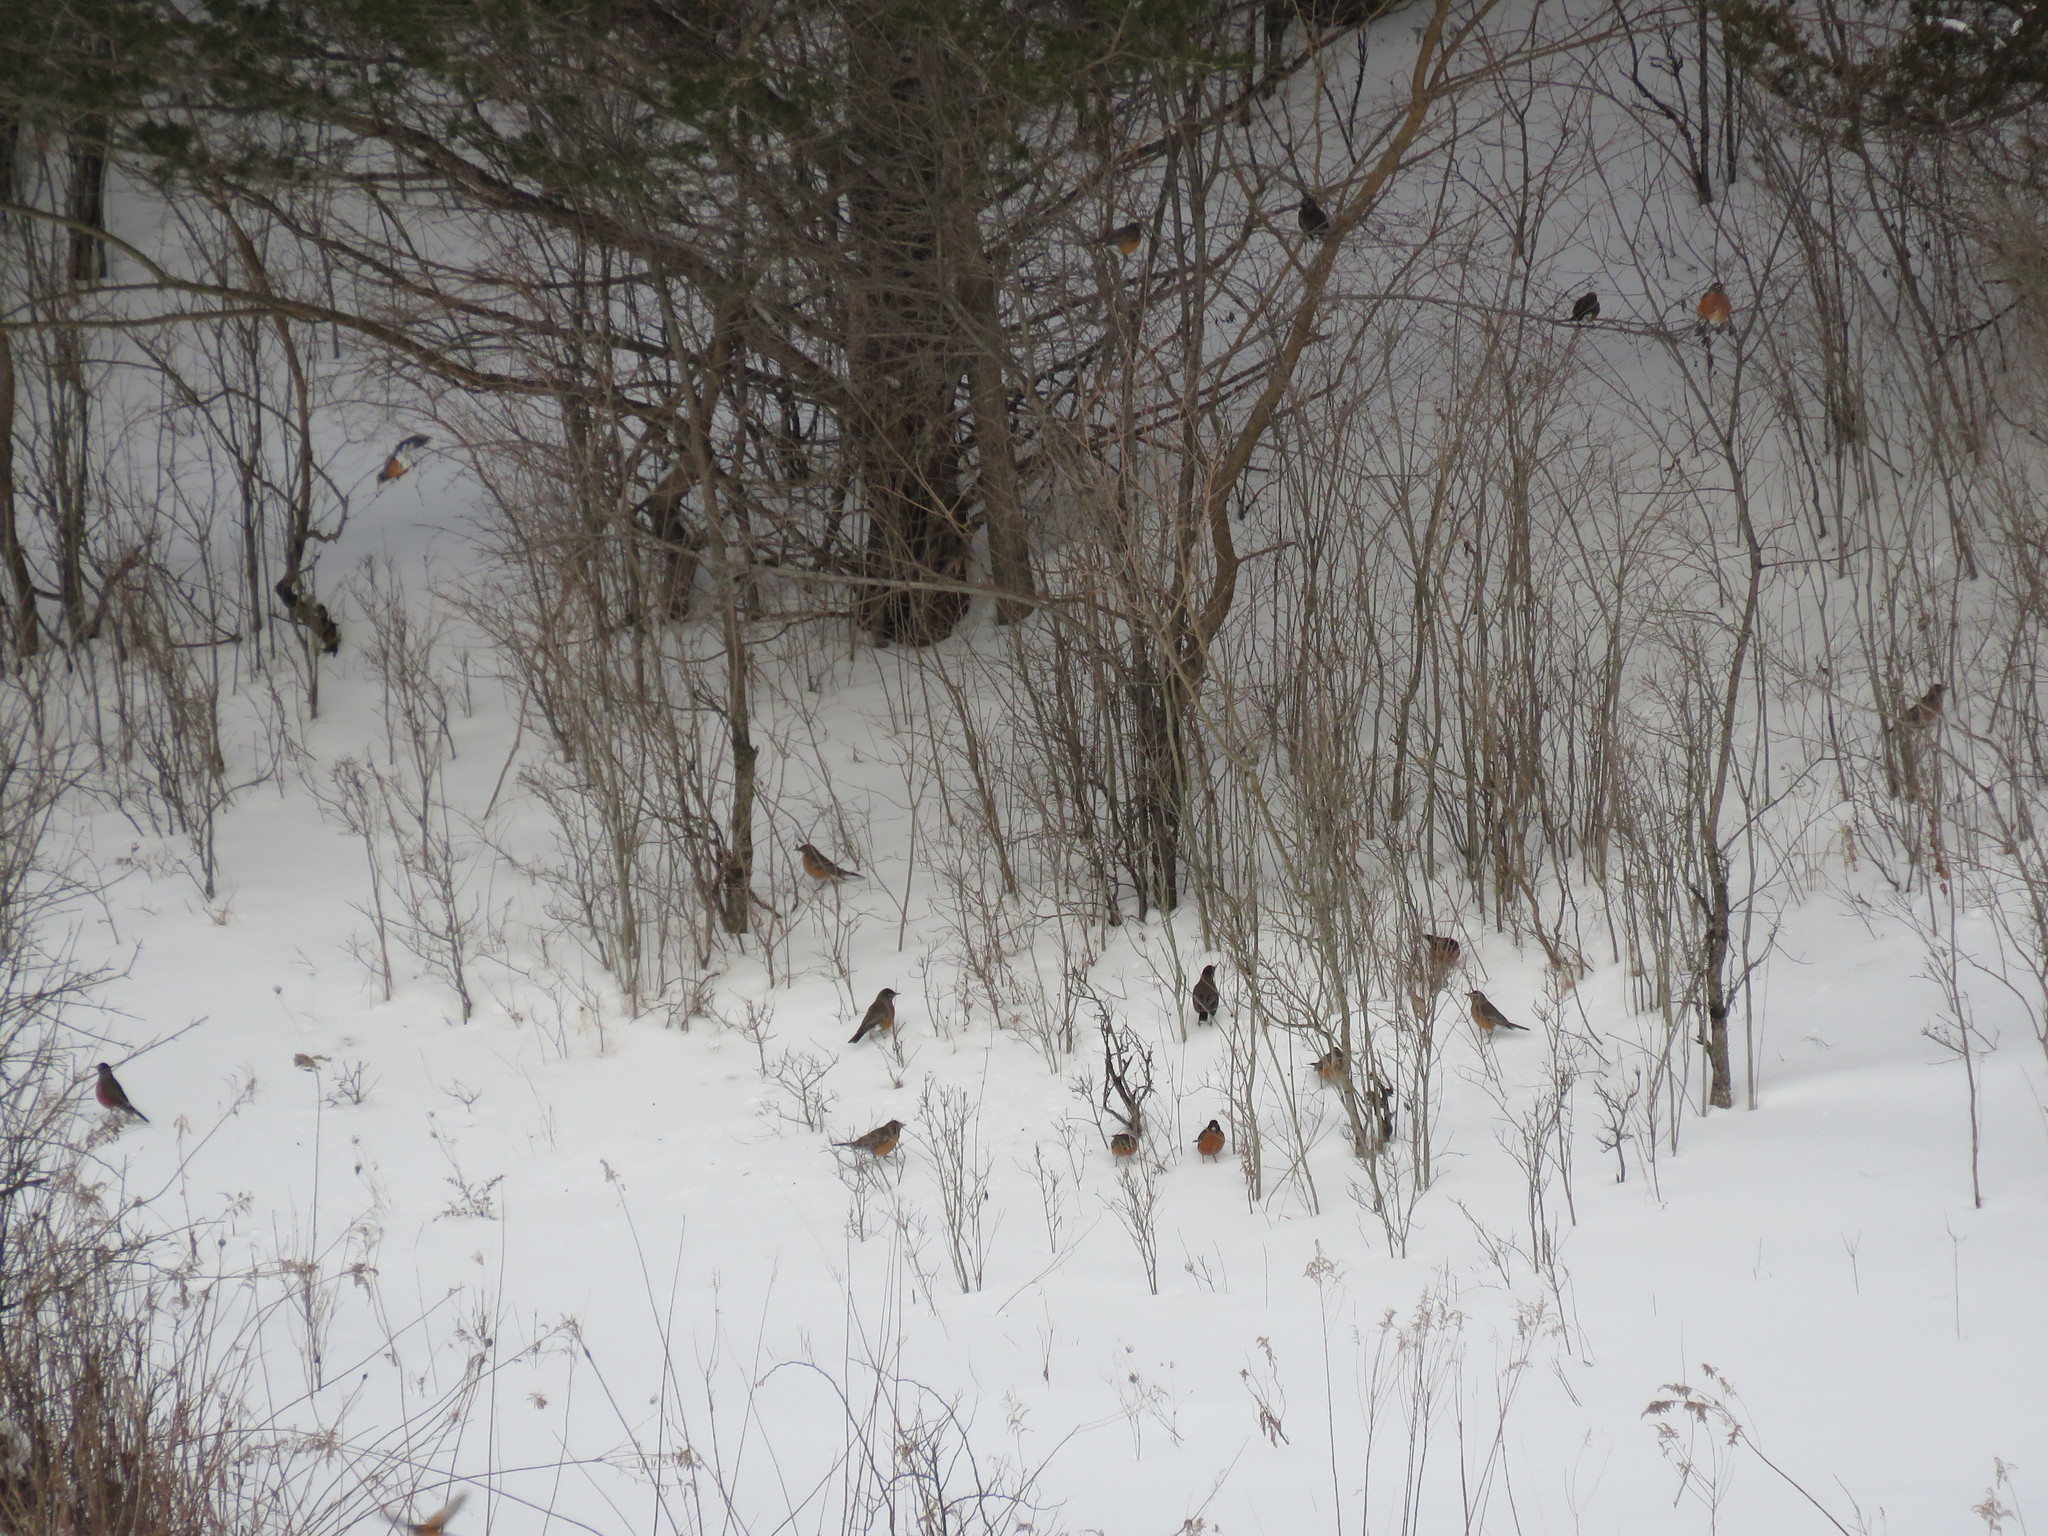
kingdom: Animalia
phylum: Chordata
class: Aves
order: Passeriformes
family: Turdidae
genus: Turdus
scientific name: Turdus migratorius
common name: American robin
